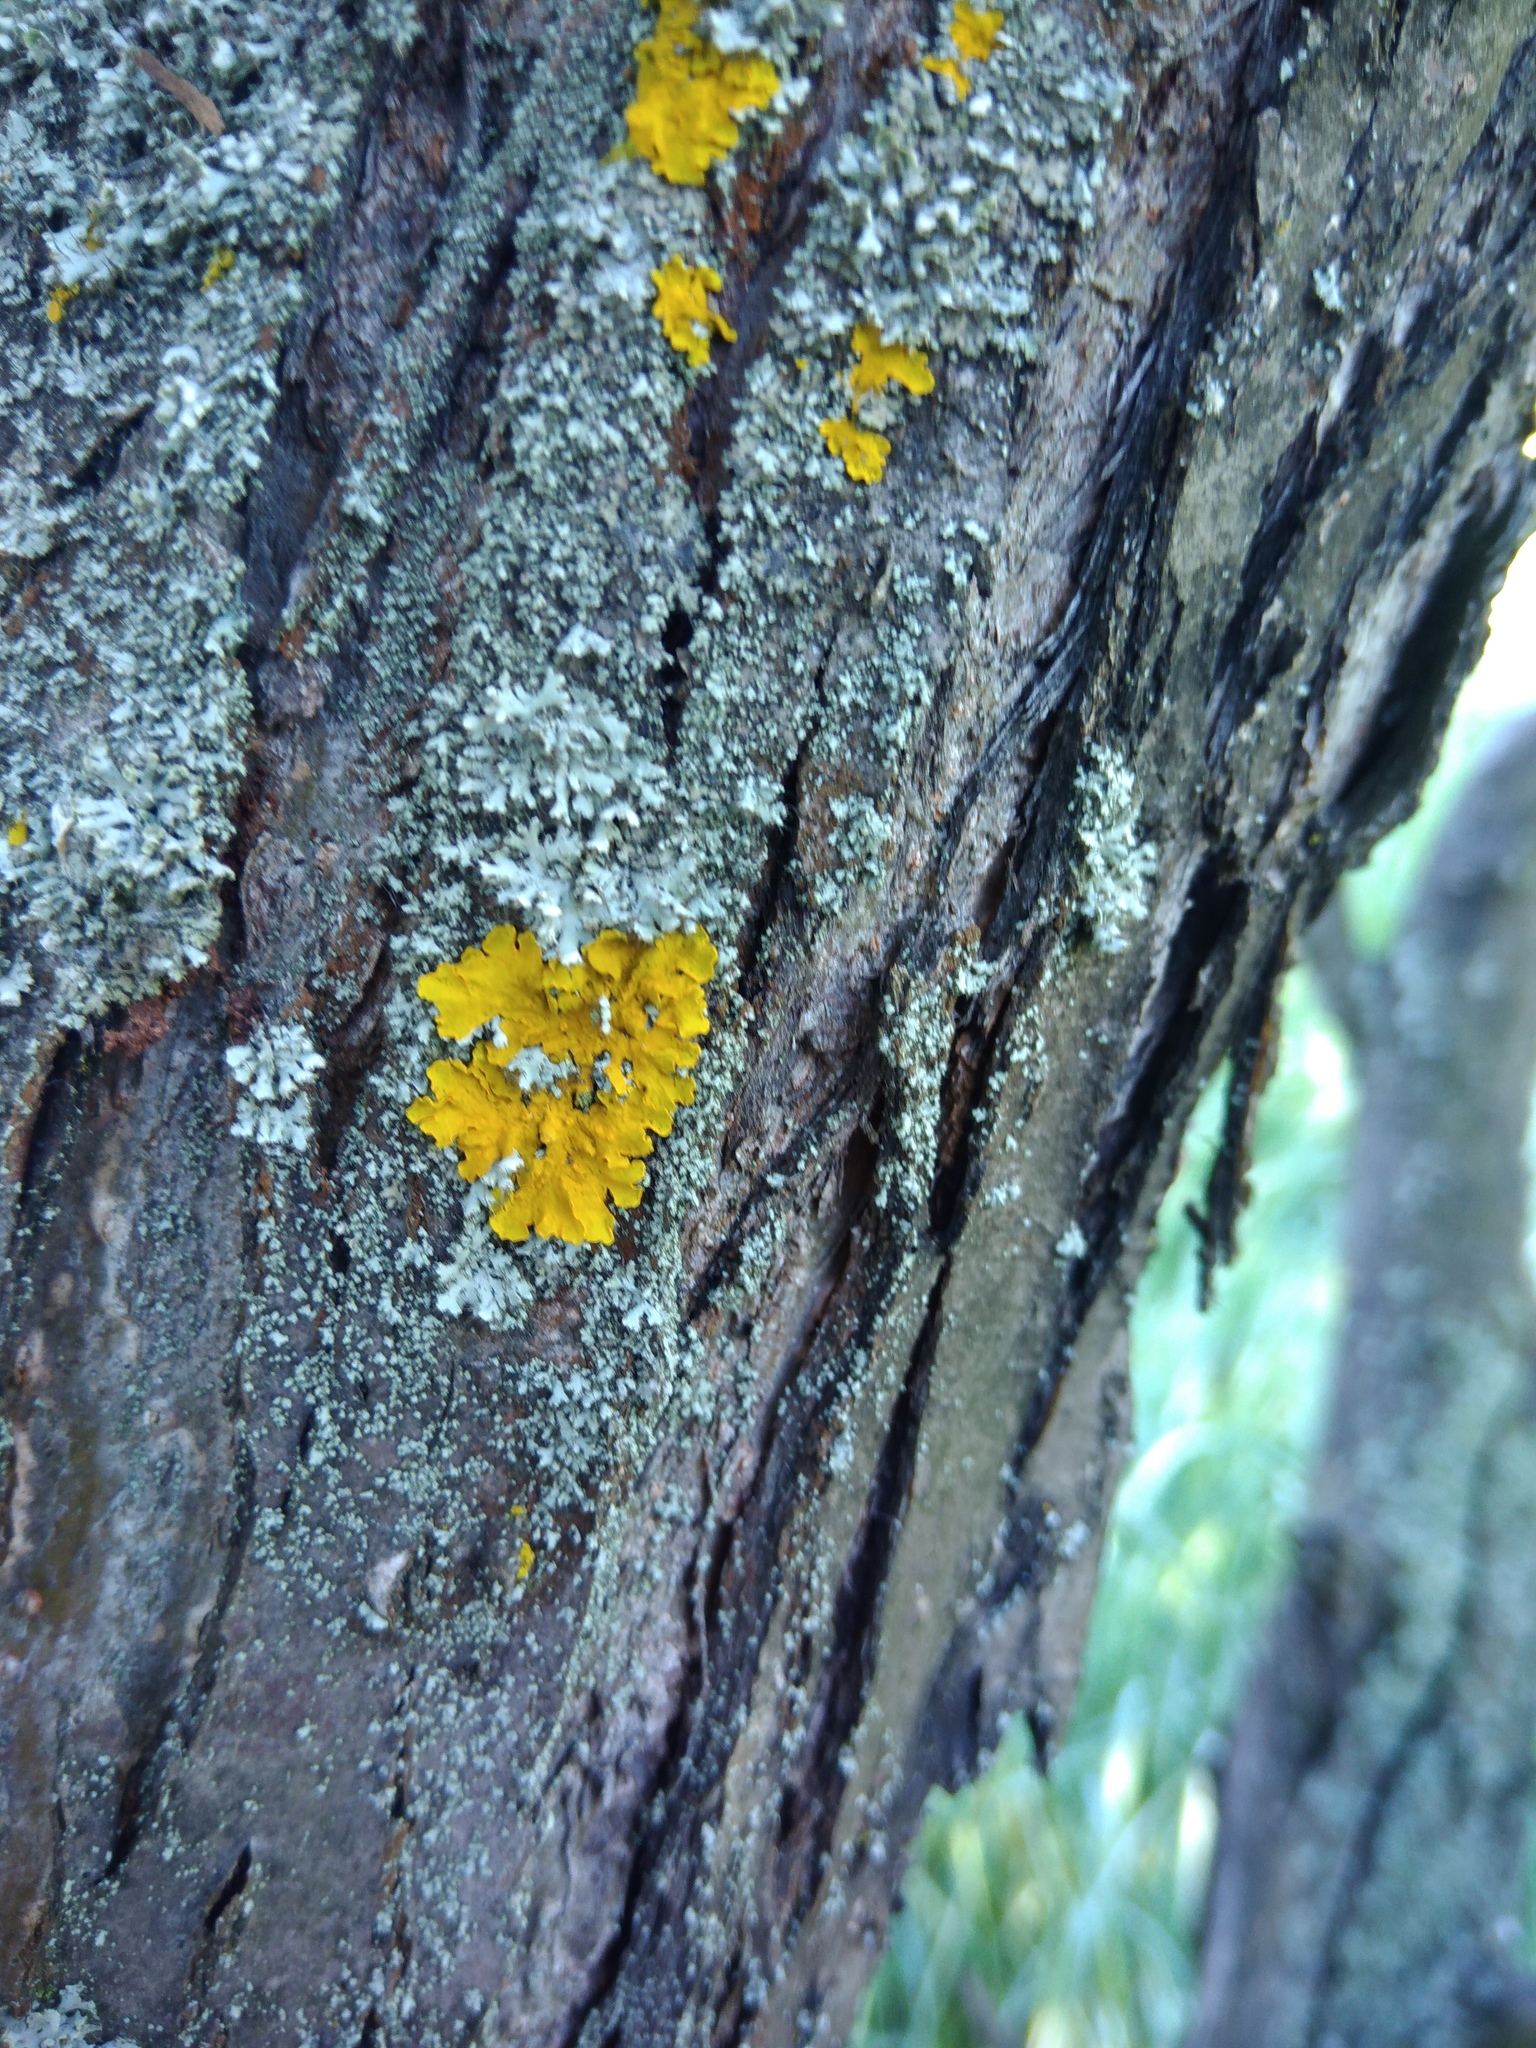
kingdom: Fungi
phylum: Ascomycota
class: Lecanoromycetes
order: Teloschistales
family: Teloschistaceae
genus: Xanthoria
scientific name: Xanthoria parietina
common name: Common orange lichen
